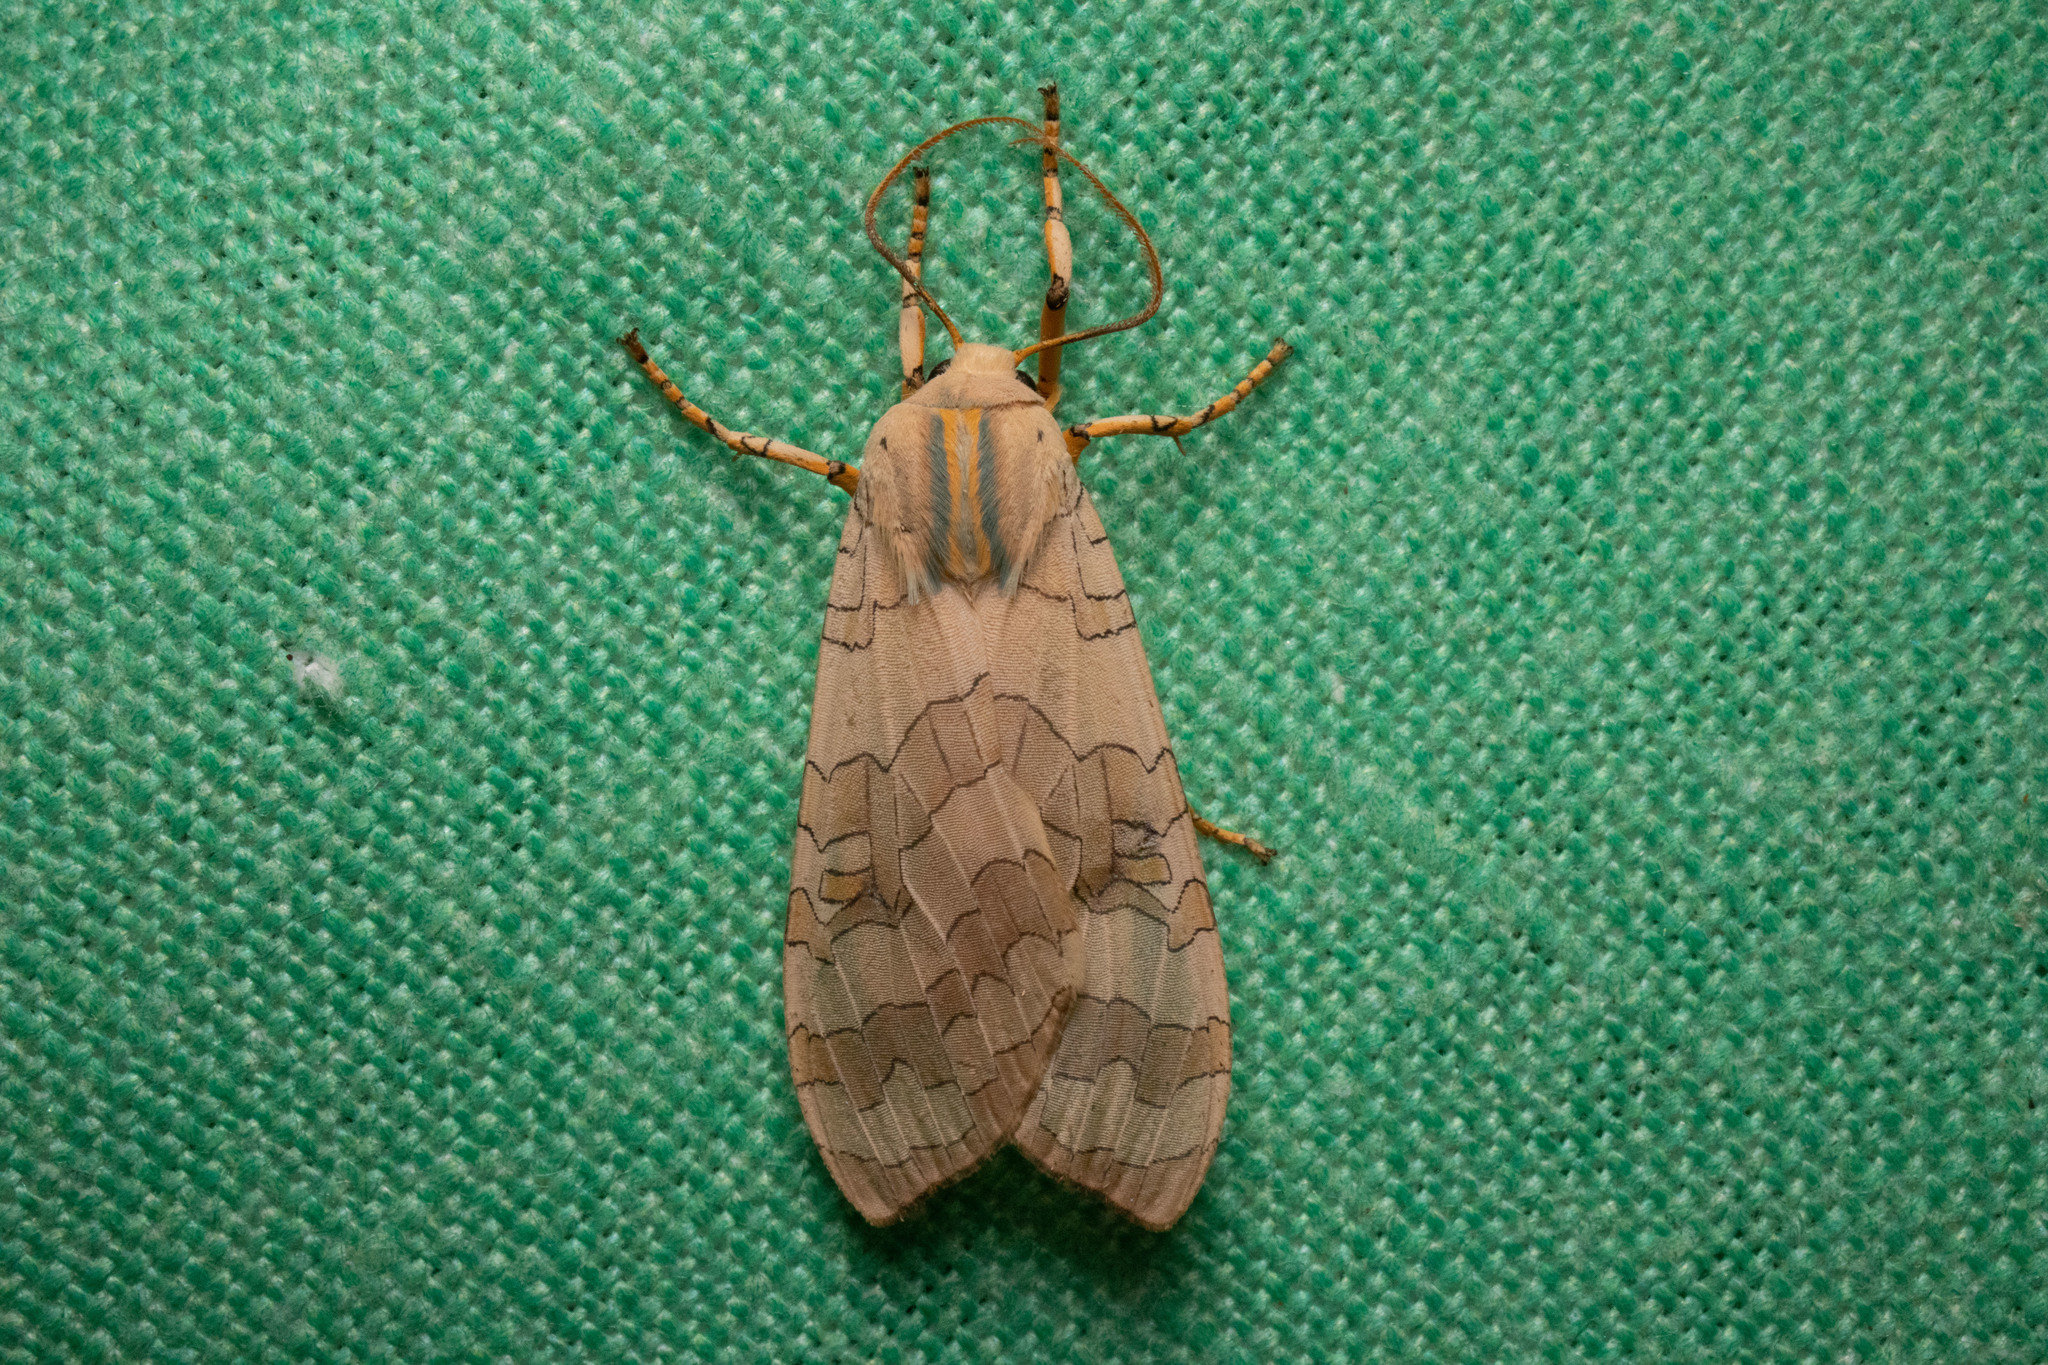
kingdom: Animalia
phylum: Arthropoda
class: Insecta
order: Lepidoptera
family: Erebidae
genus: Halysidota
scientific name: Halysidota
